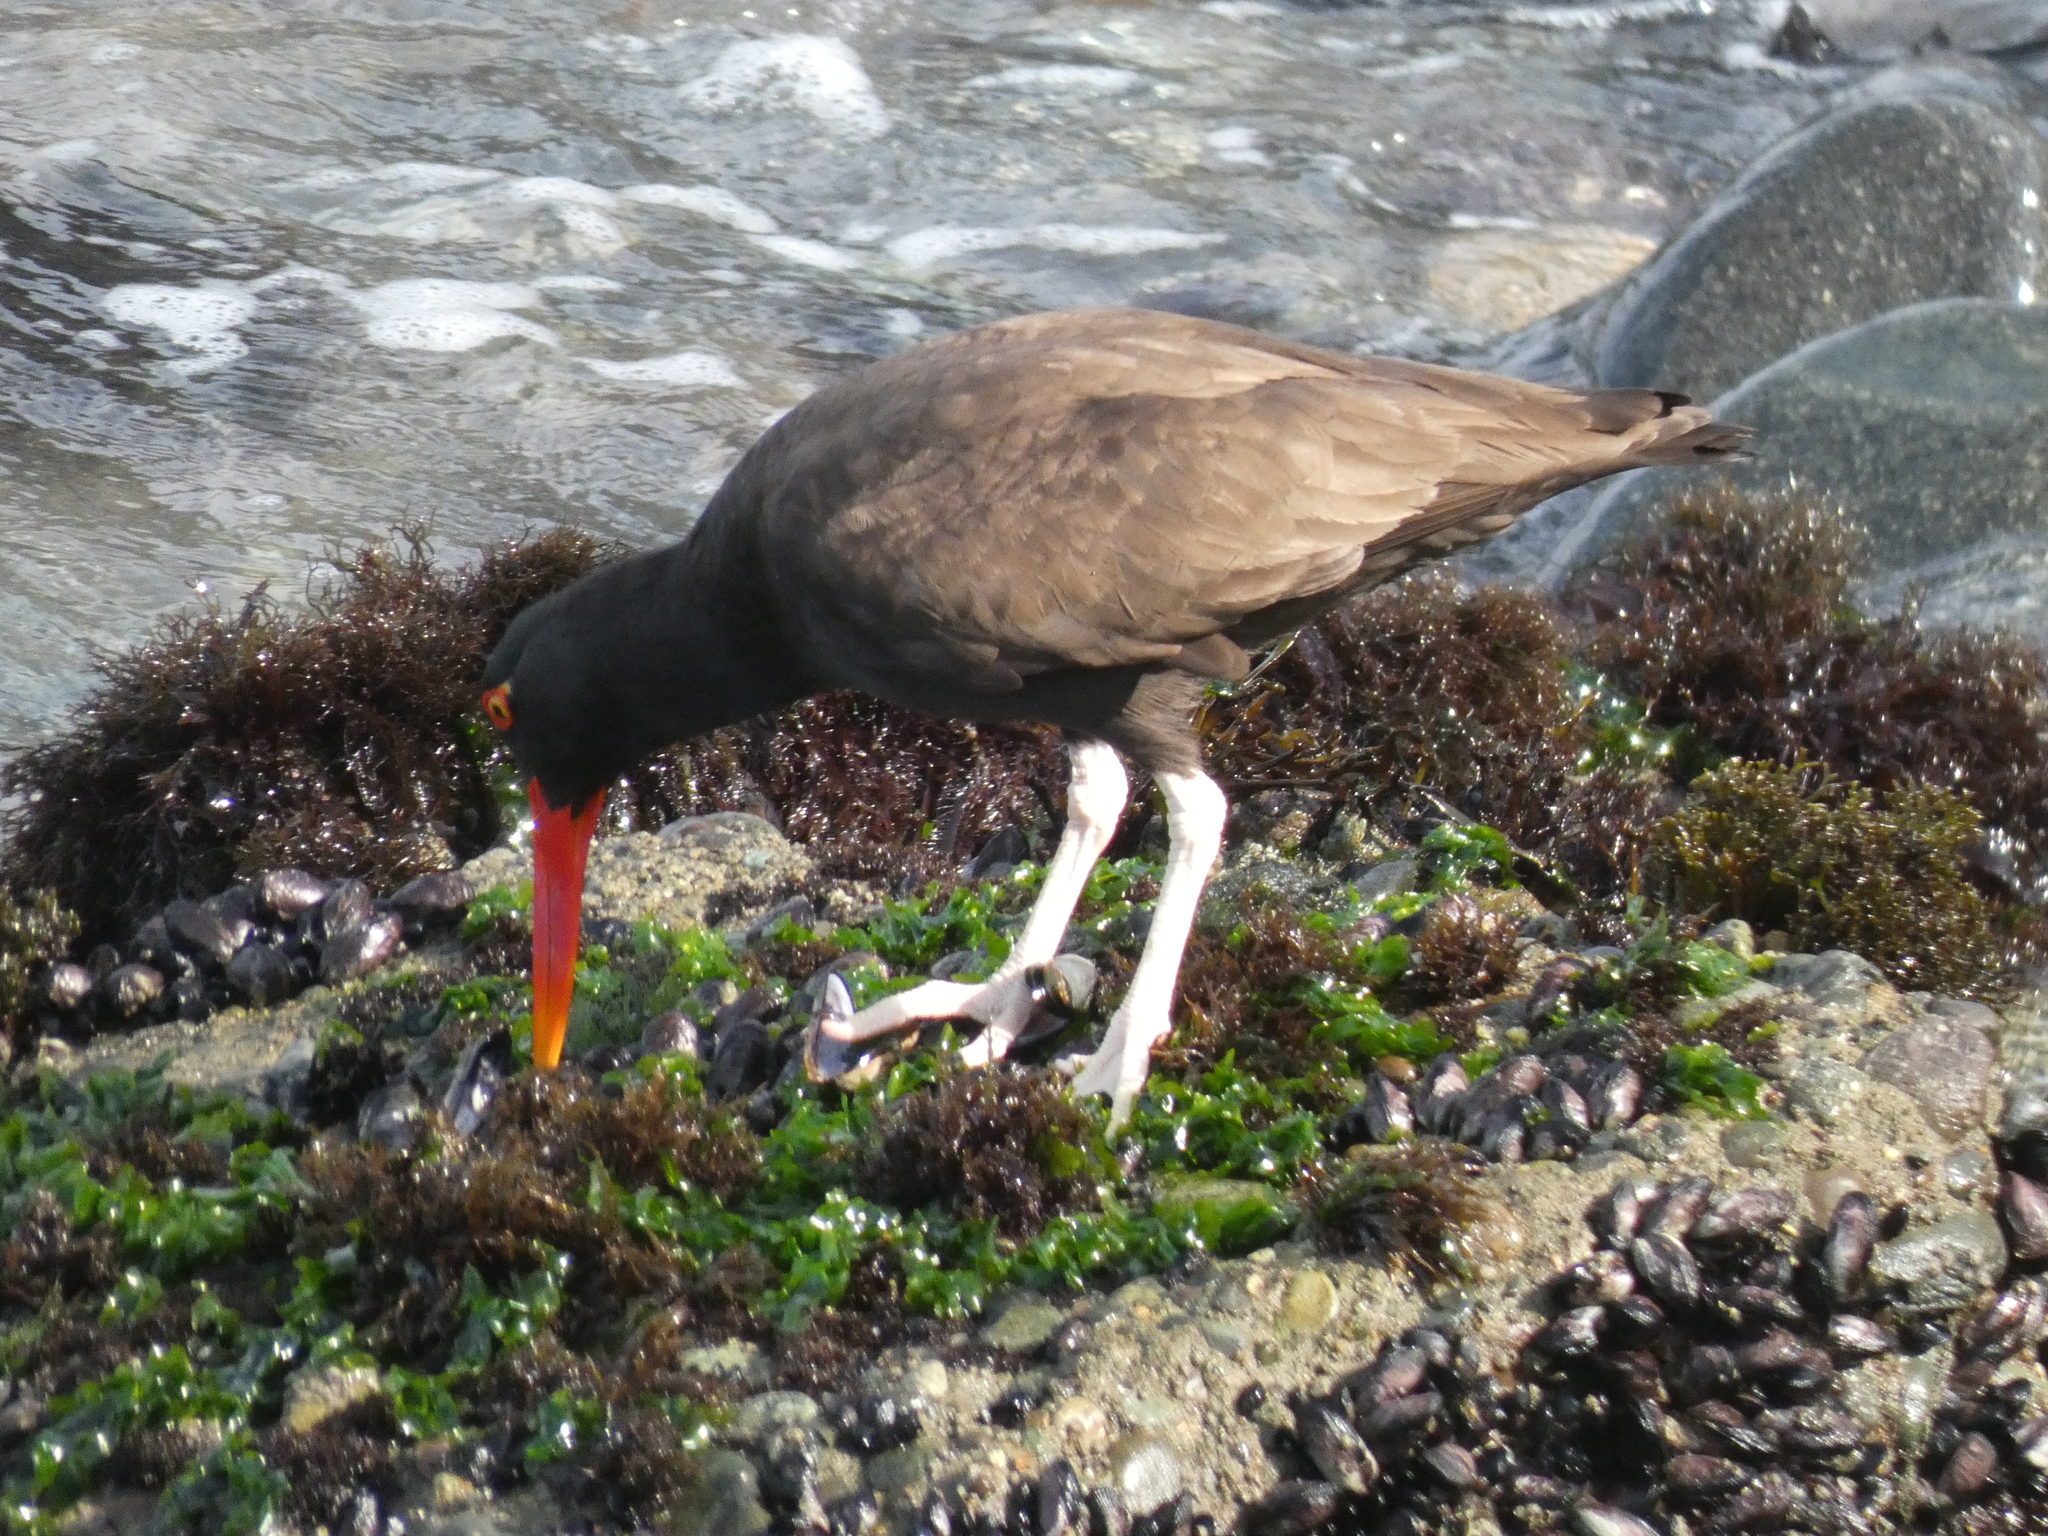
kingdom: Animalia
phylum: Chordata
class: Aves
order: Charadriiformes
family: Haematopodidae
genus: Haematopus
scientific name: Haematopus ater
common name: Blackish oystercatcher
